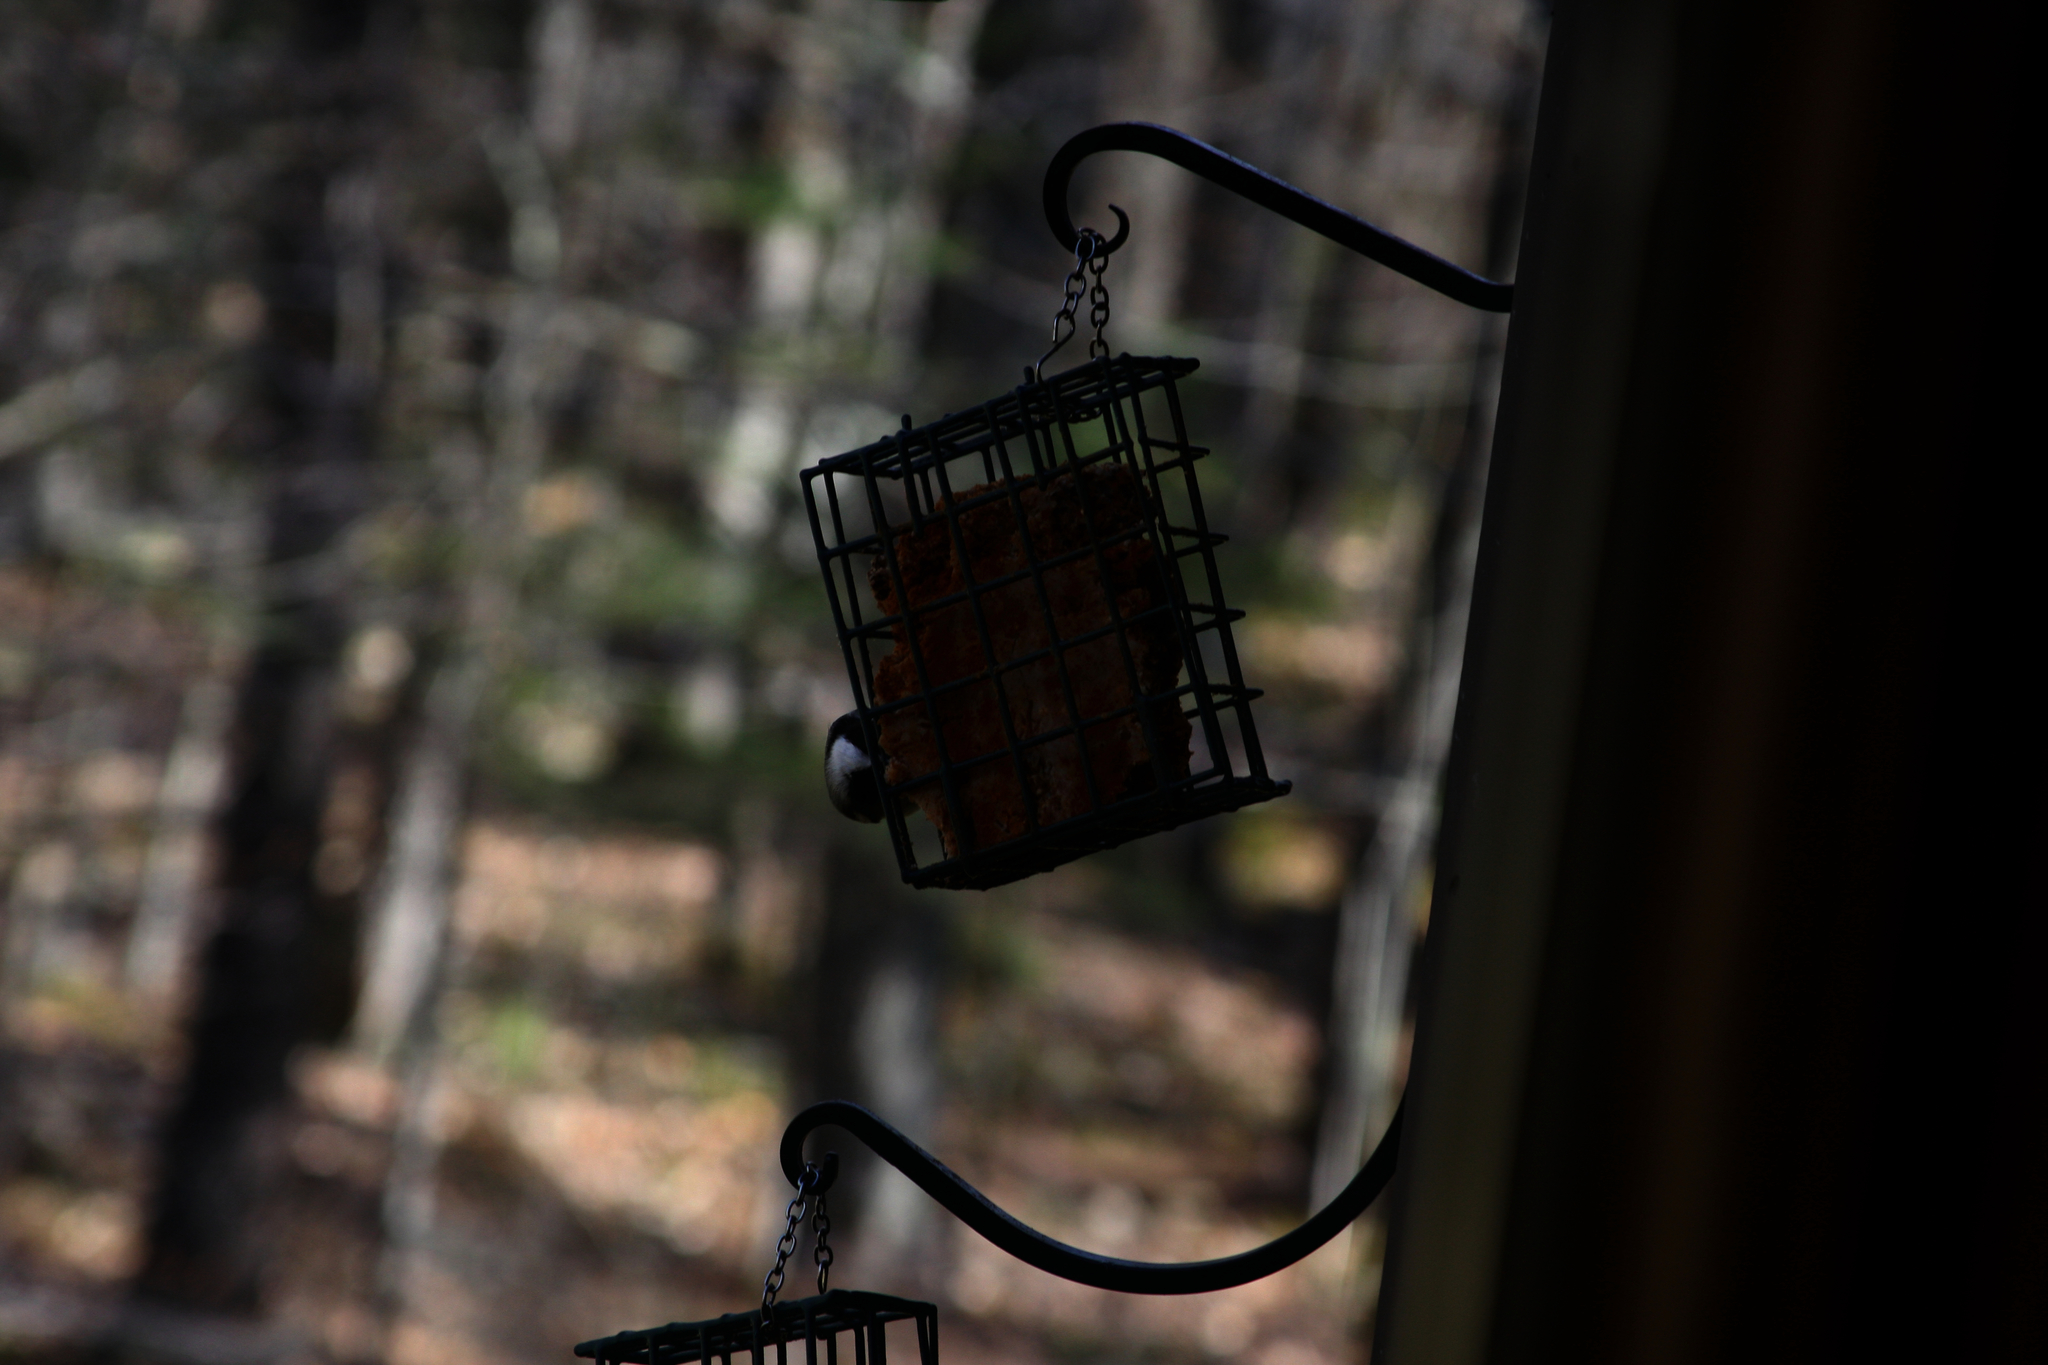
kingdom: Animalia
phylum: Chordata
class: Aves
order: Passeriformes
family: Paridae
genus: Poecile
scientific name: Poecile atricapillus
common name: Black-capped chickadee
